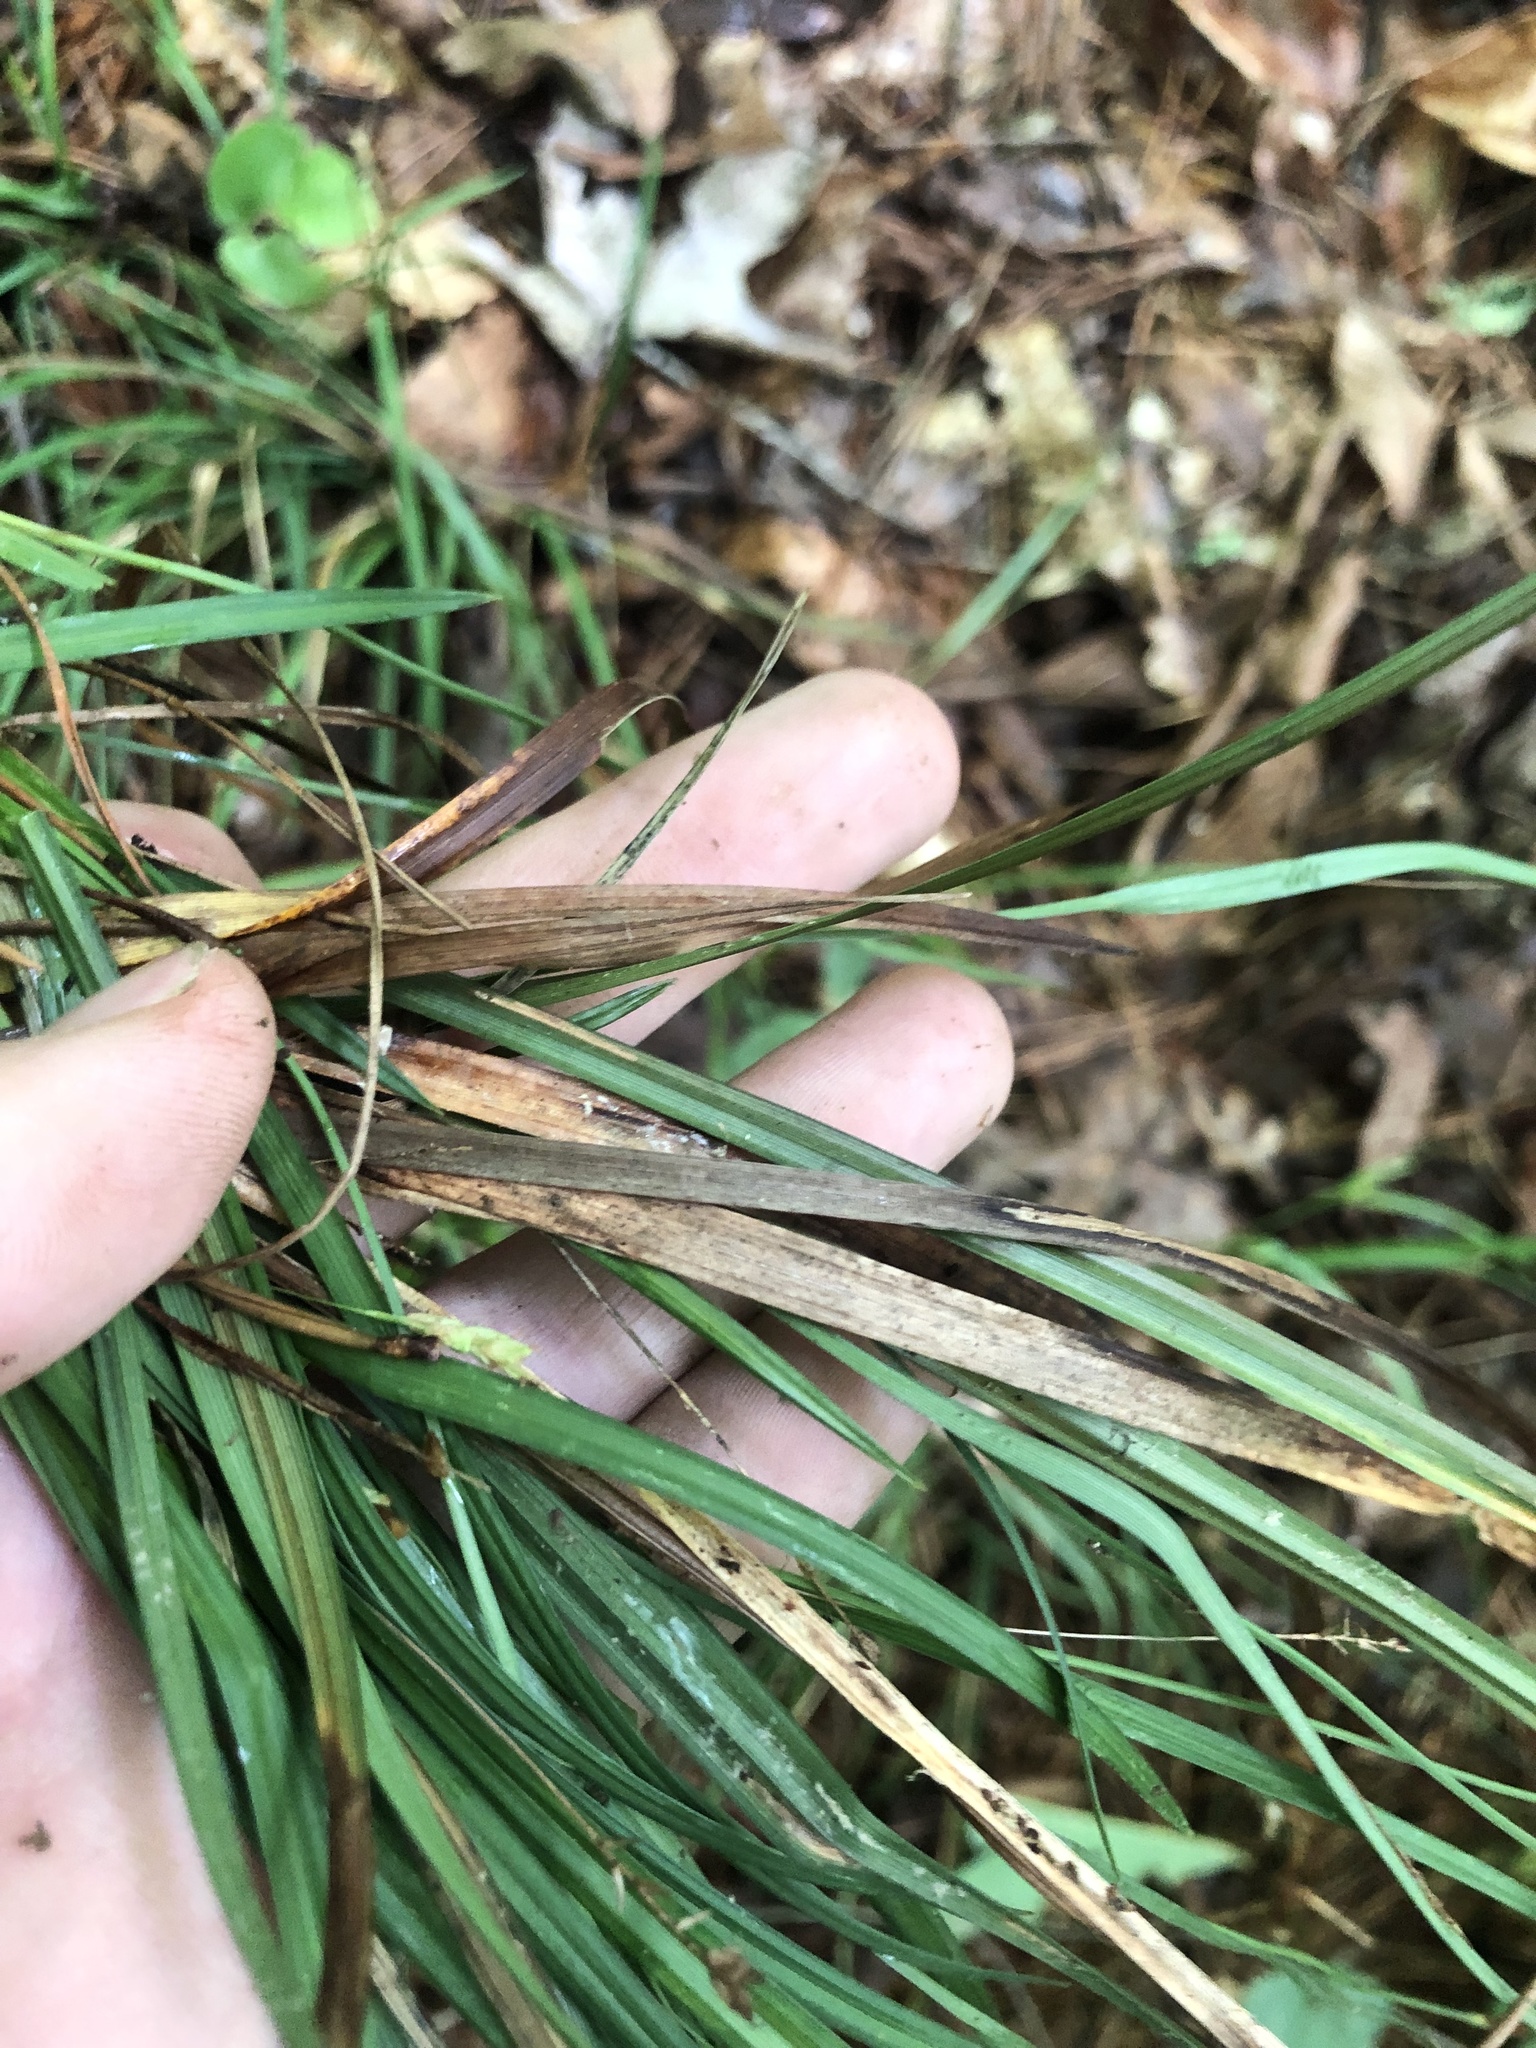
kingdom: Plantae
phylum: Tracheophyta
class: Liliopsida
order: Poales
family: Cyperaceae
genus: Carex
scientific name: Carex digitalis
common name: Slender wood sedge
